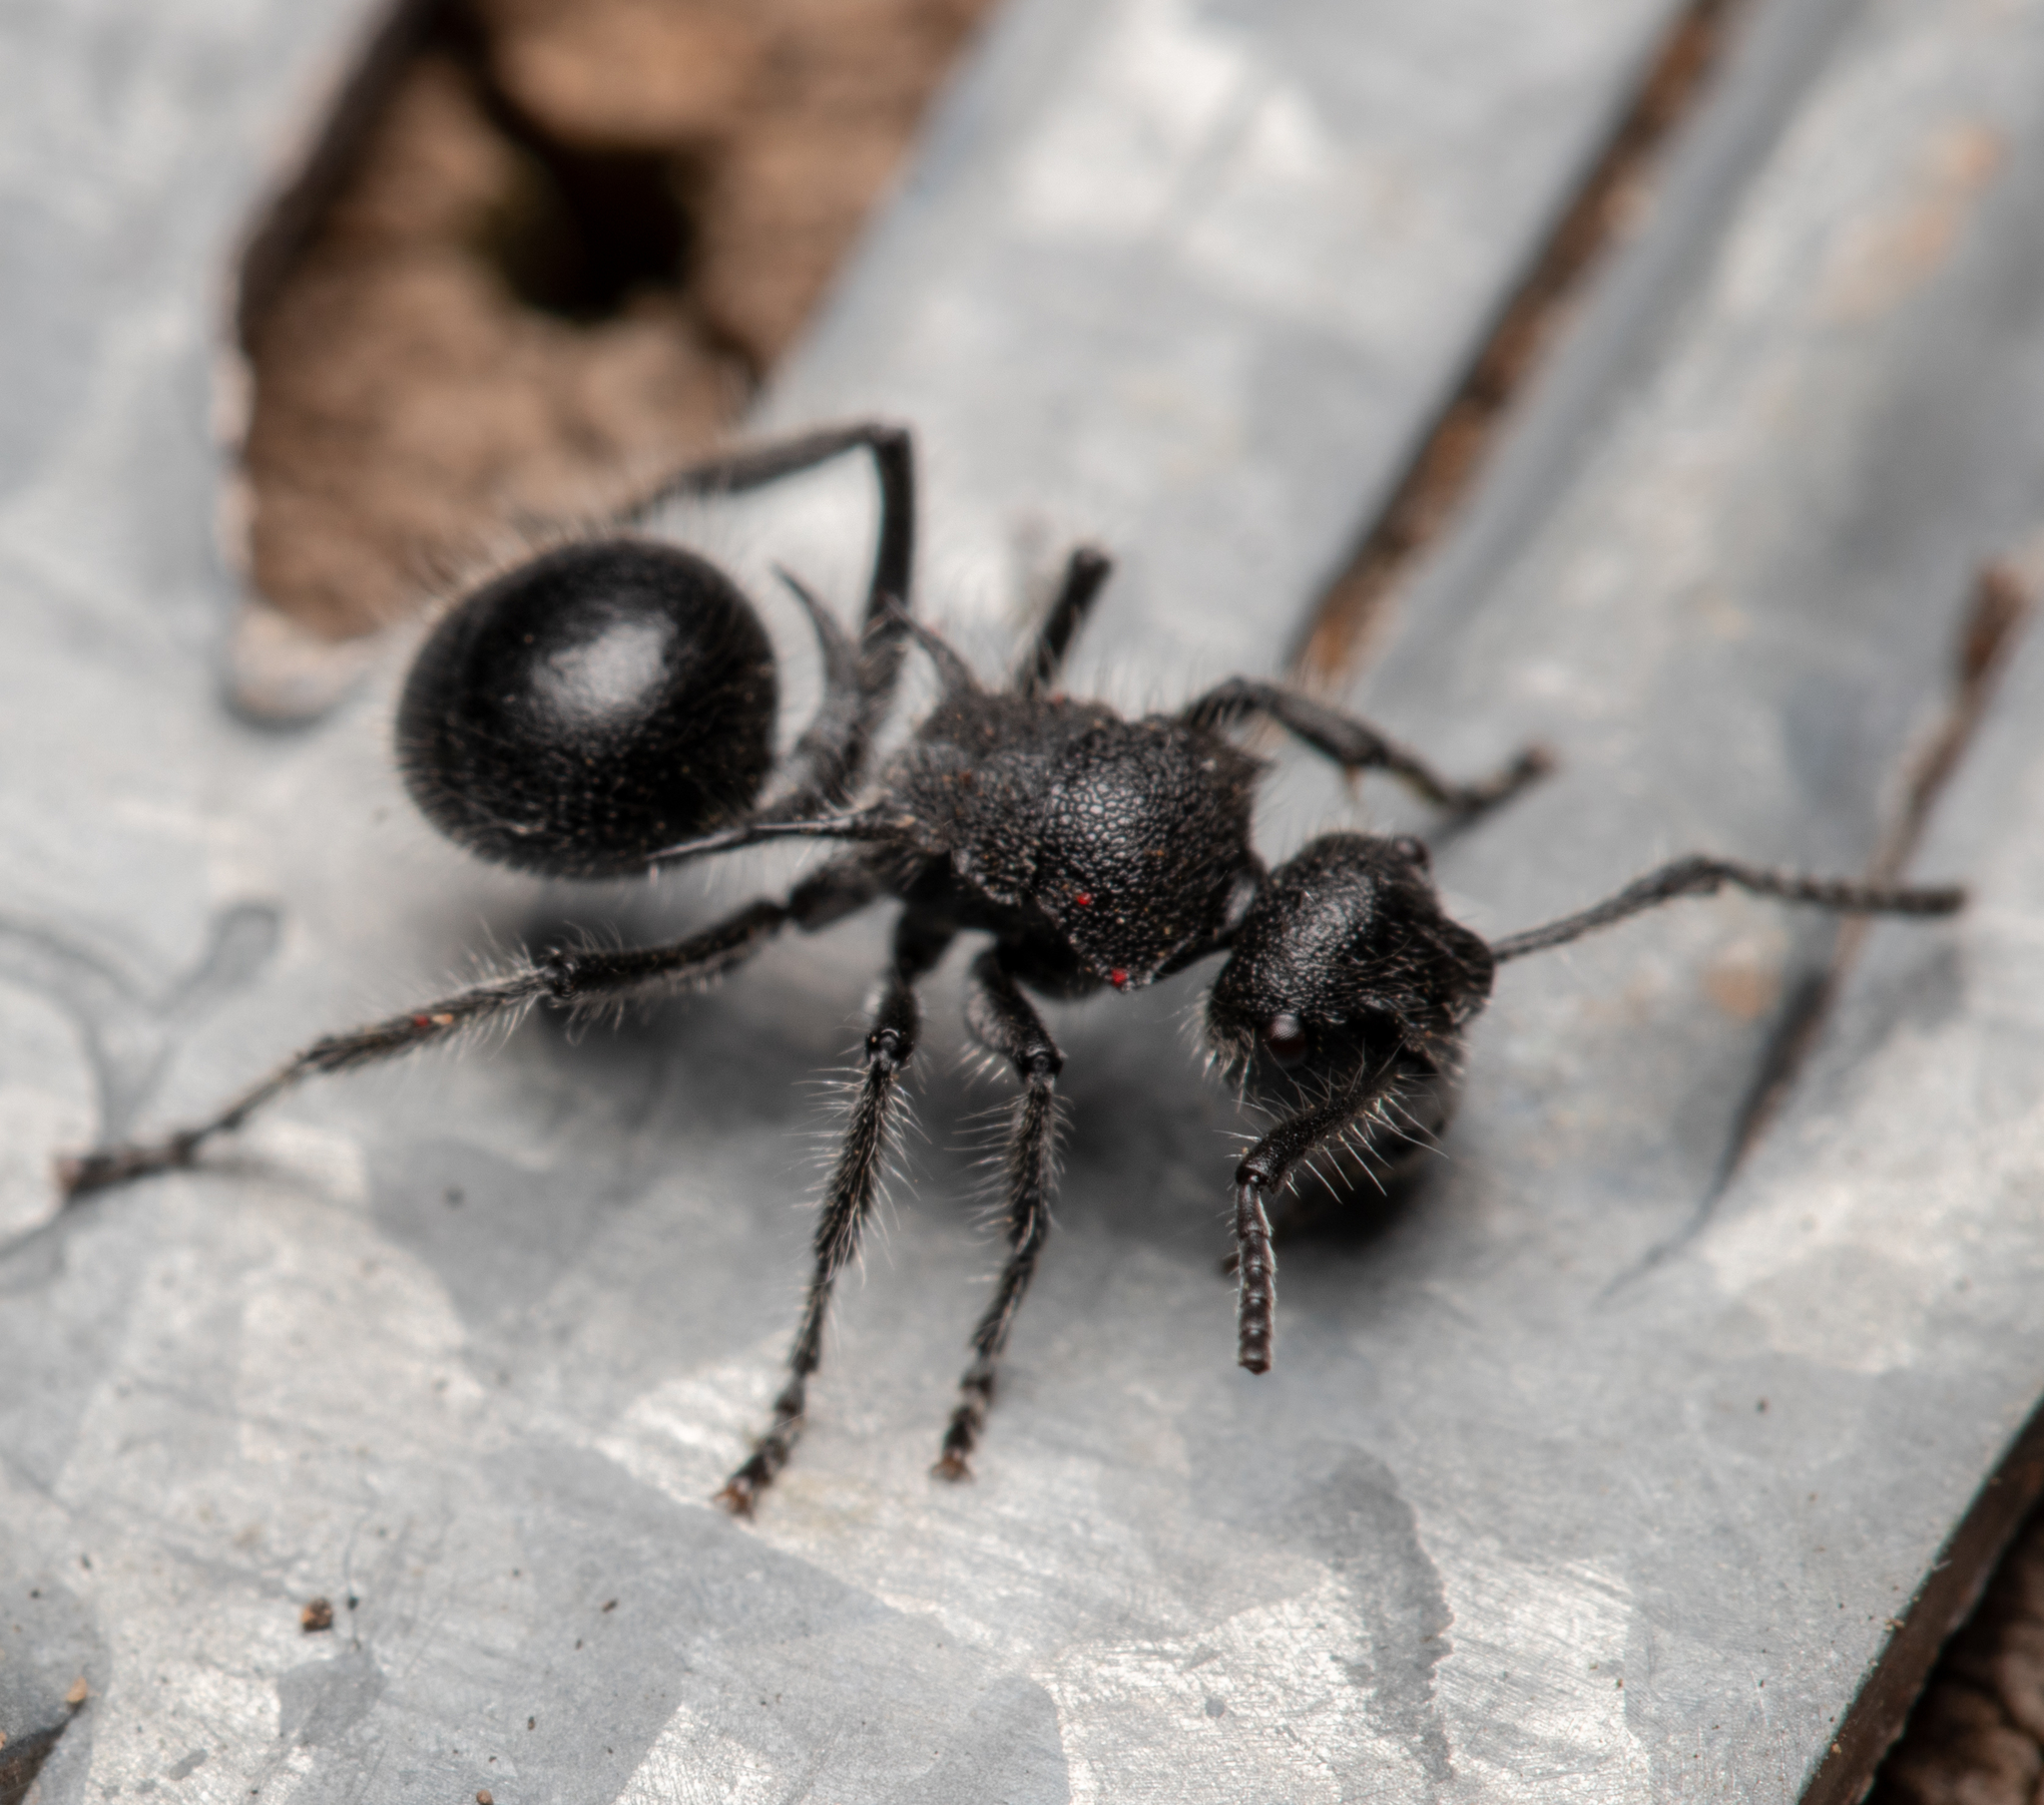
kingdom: Animalia
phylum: Arthropoda
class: Insecta
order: Hymenoptera
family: Formicidae
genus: Polyrhachis
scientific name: Polyrhachis punctiventris
